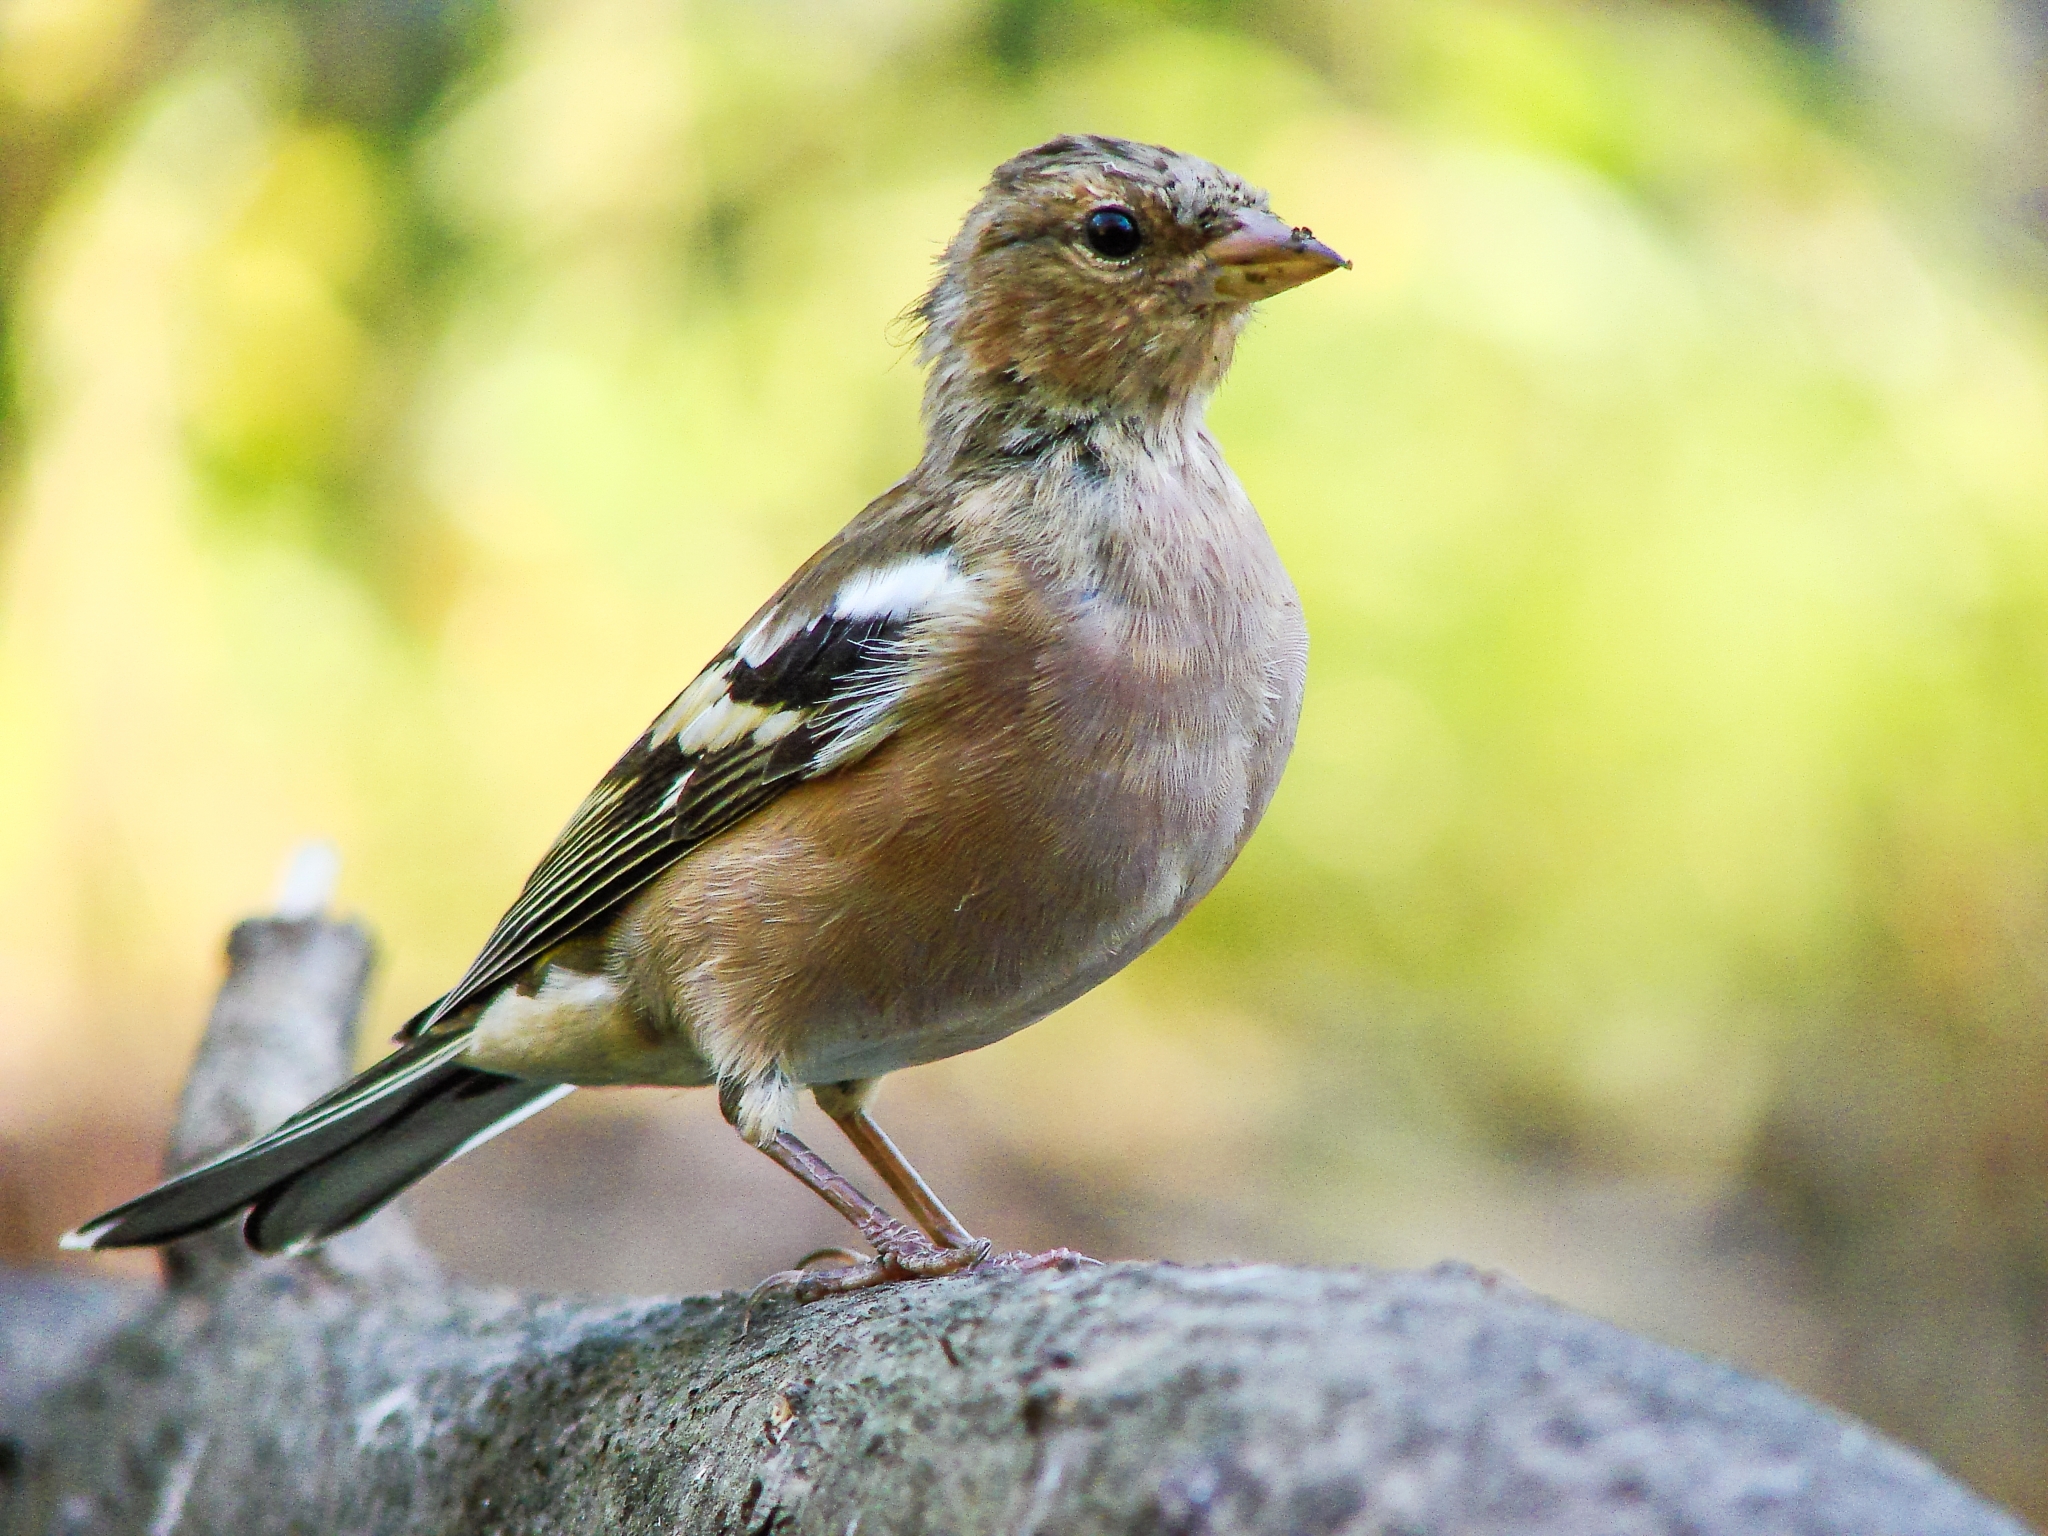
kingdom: Animalia
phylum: Chordata
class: Aves
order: Passeriformes
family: Fringillidae
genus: Fringilla
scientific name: Fringilla coelebs
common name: Common chaffinch
